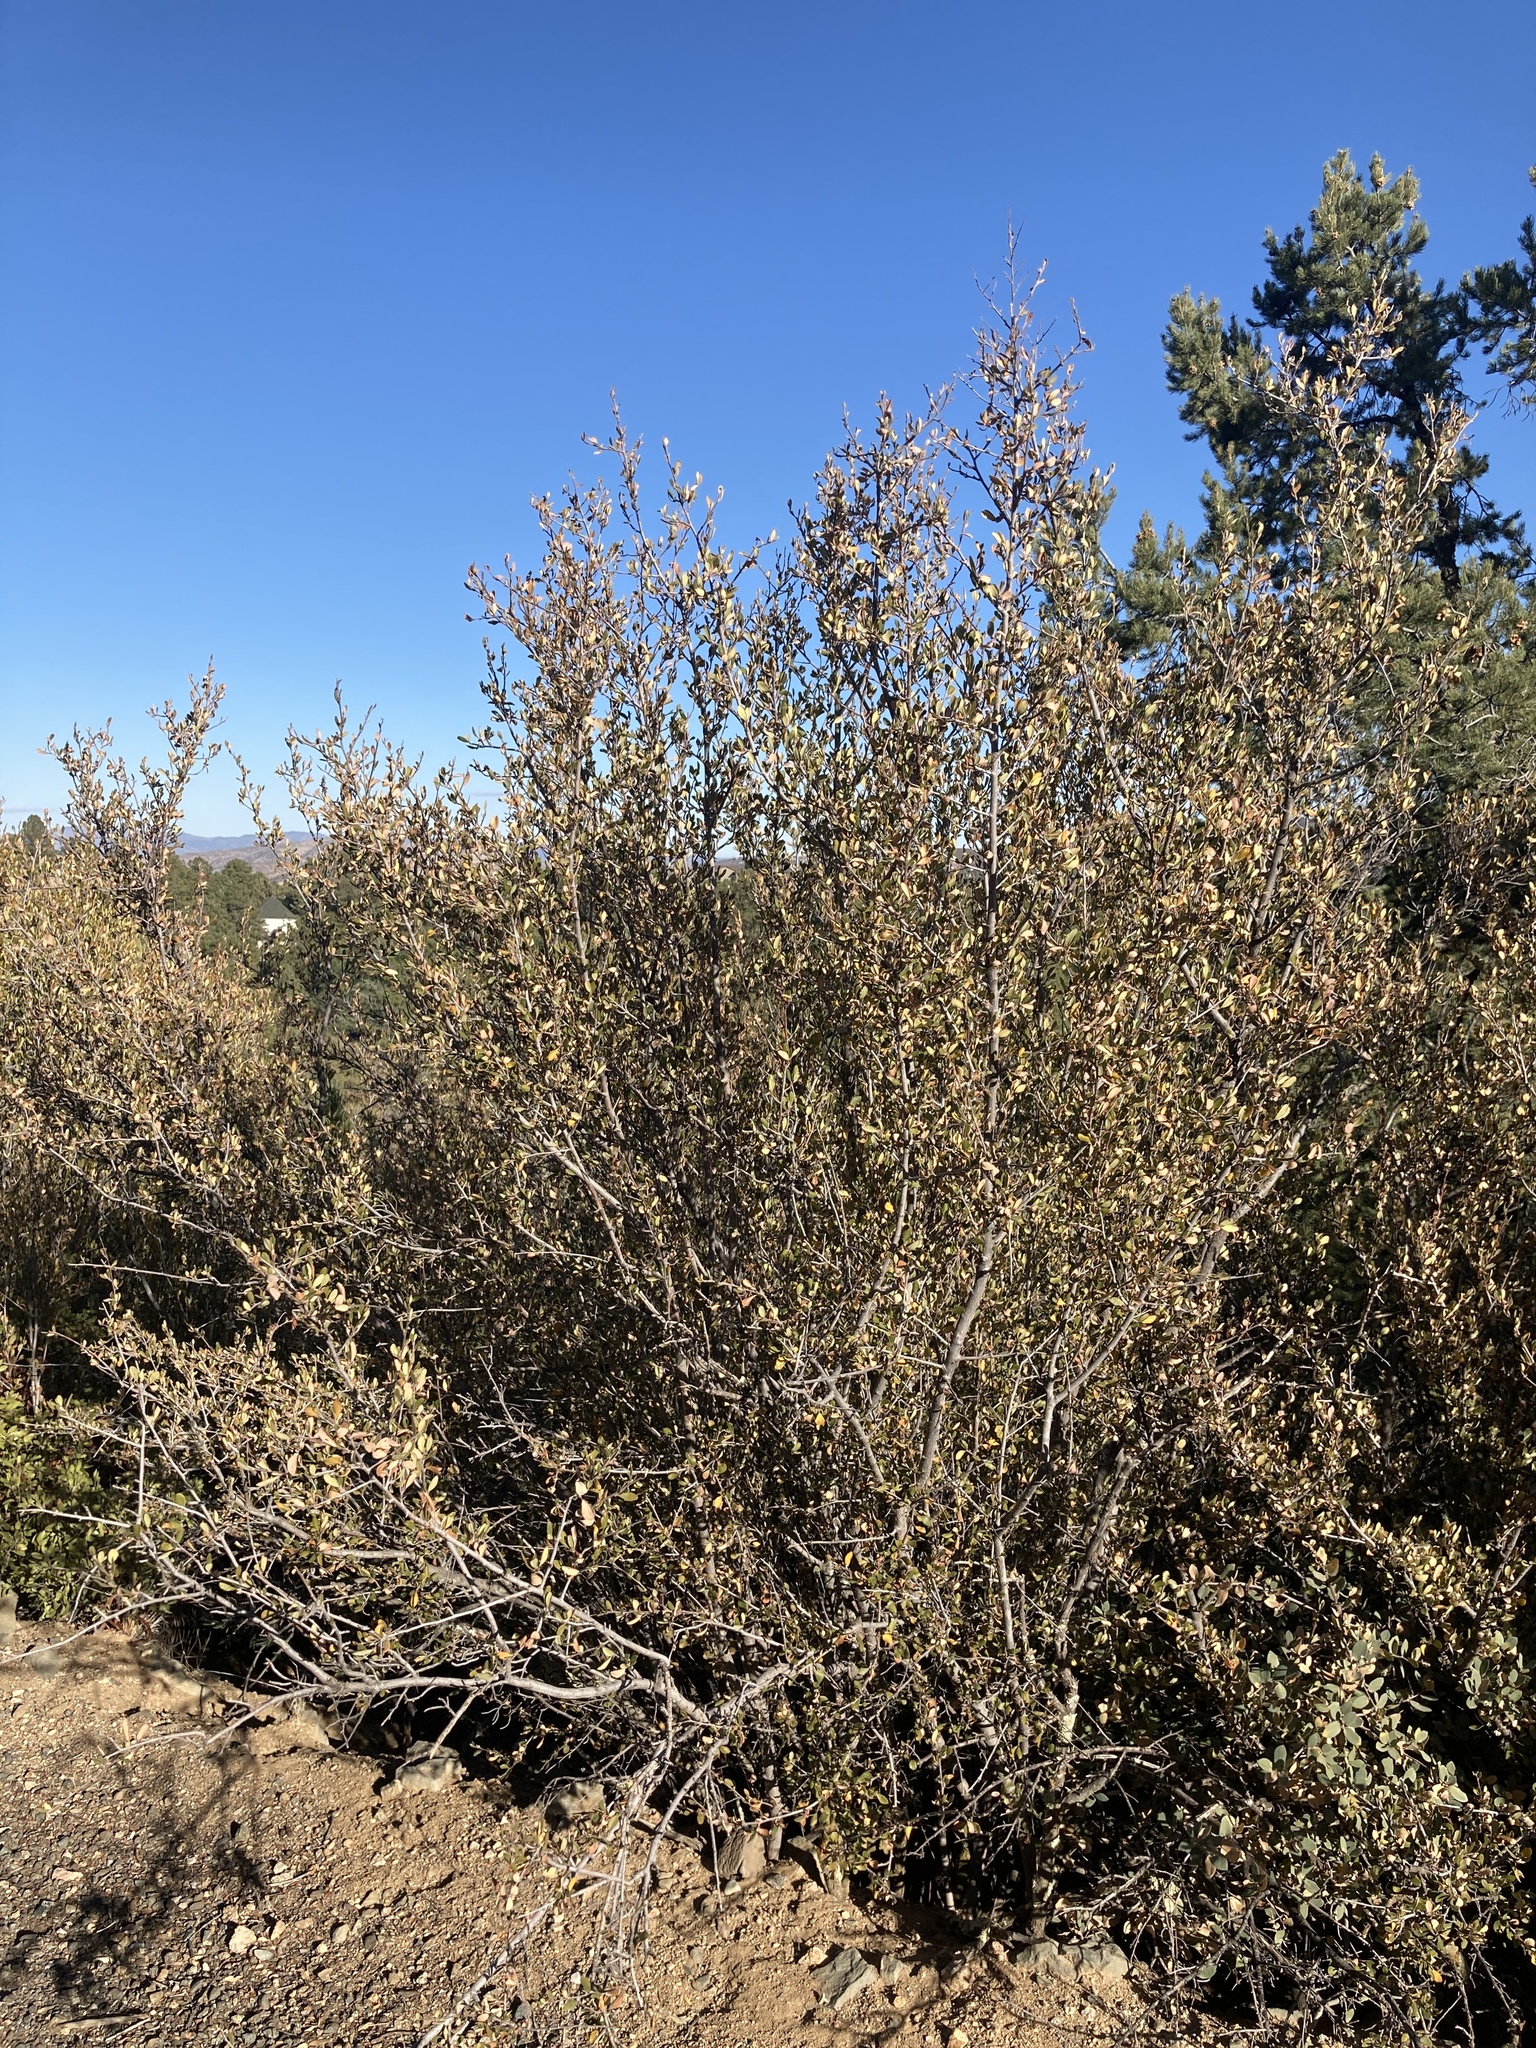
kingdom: Plantae
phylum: Tracheophyta
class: Magnoliopsida
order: Rosales
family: Rosaceae
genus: Cercocarpus
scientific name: Cercocarpus montanus
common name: Alder-leaf cercocarpus
